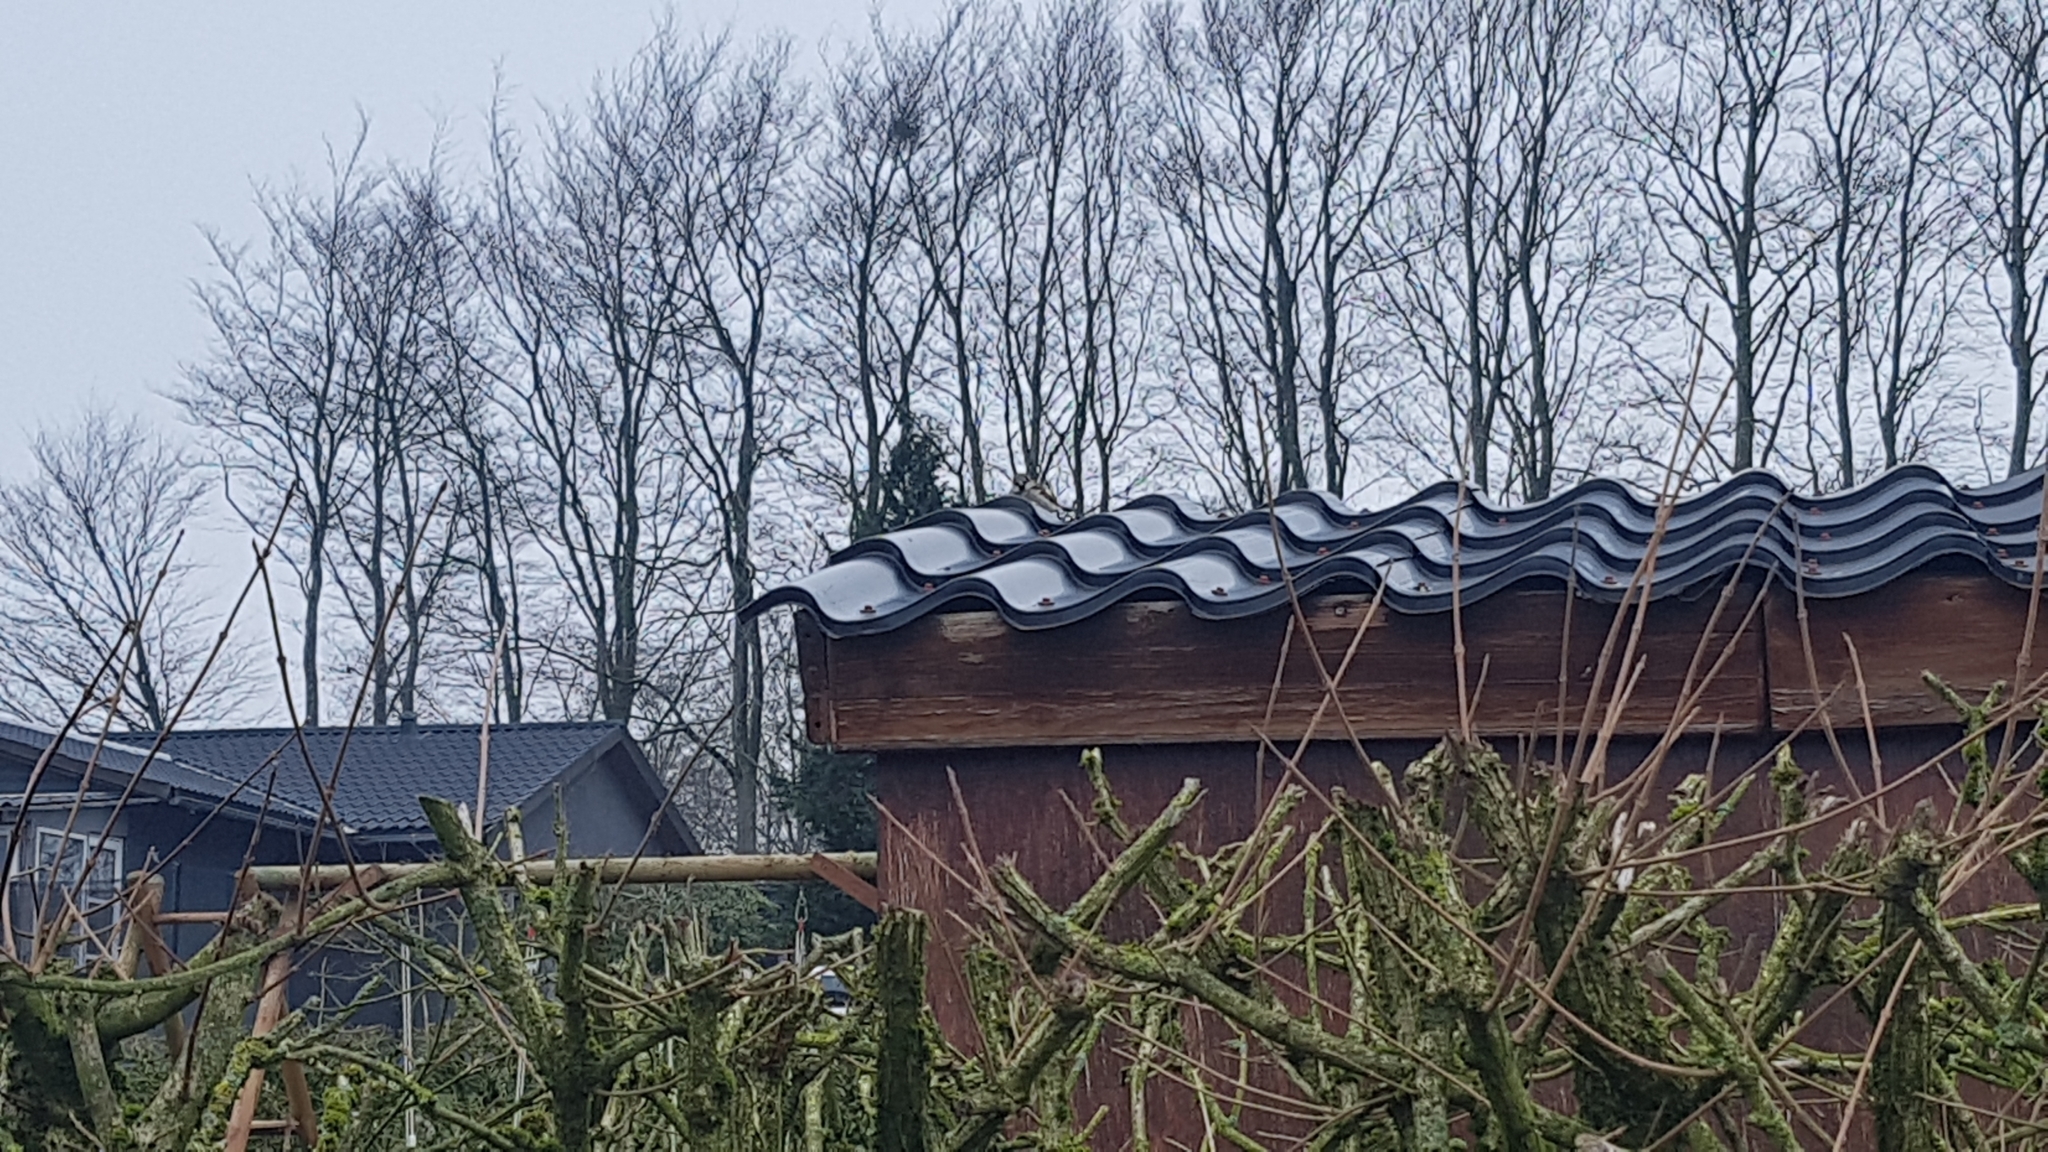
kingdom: Animalia
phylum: Chordata
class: Aves
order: Passeriformes
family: Passeridae
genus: Passer
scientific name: Passer domesticus
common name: House sparrow
